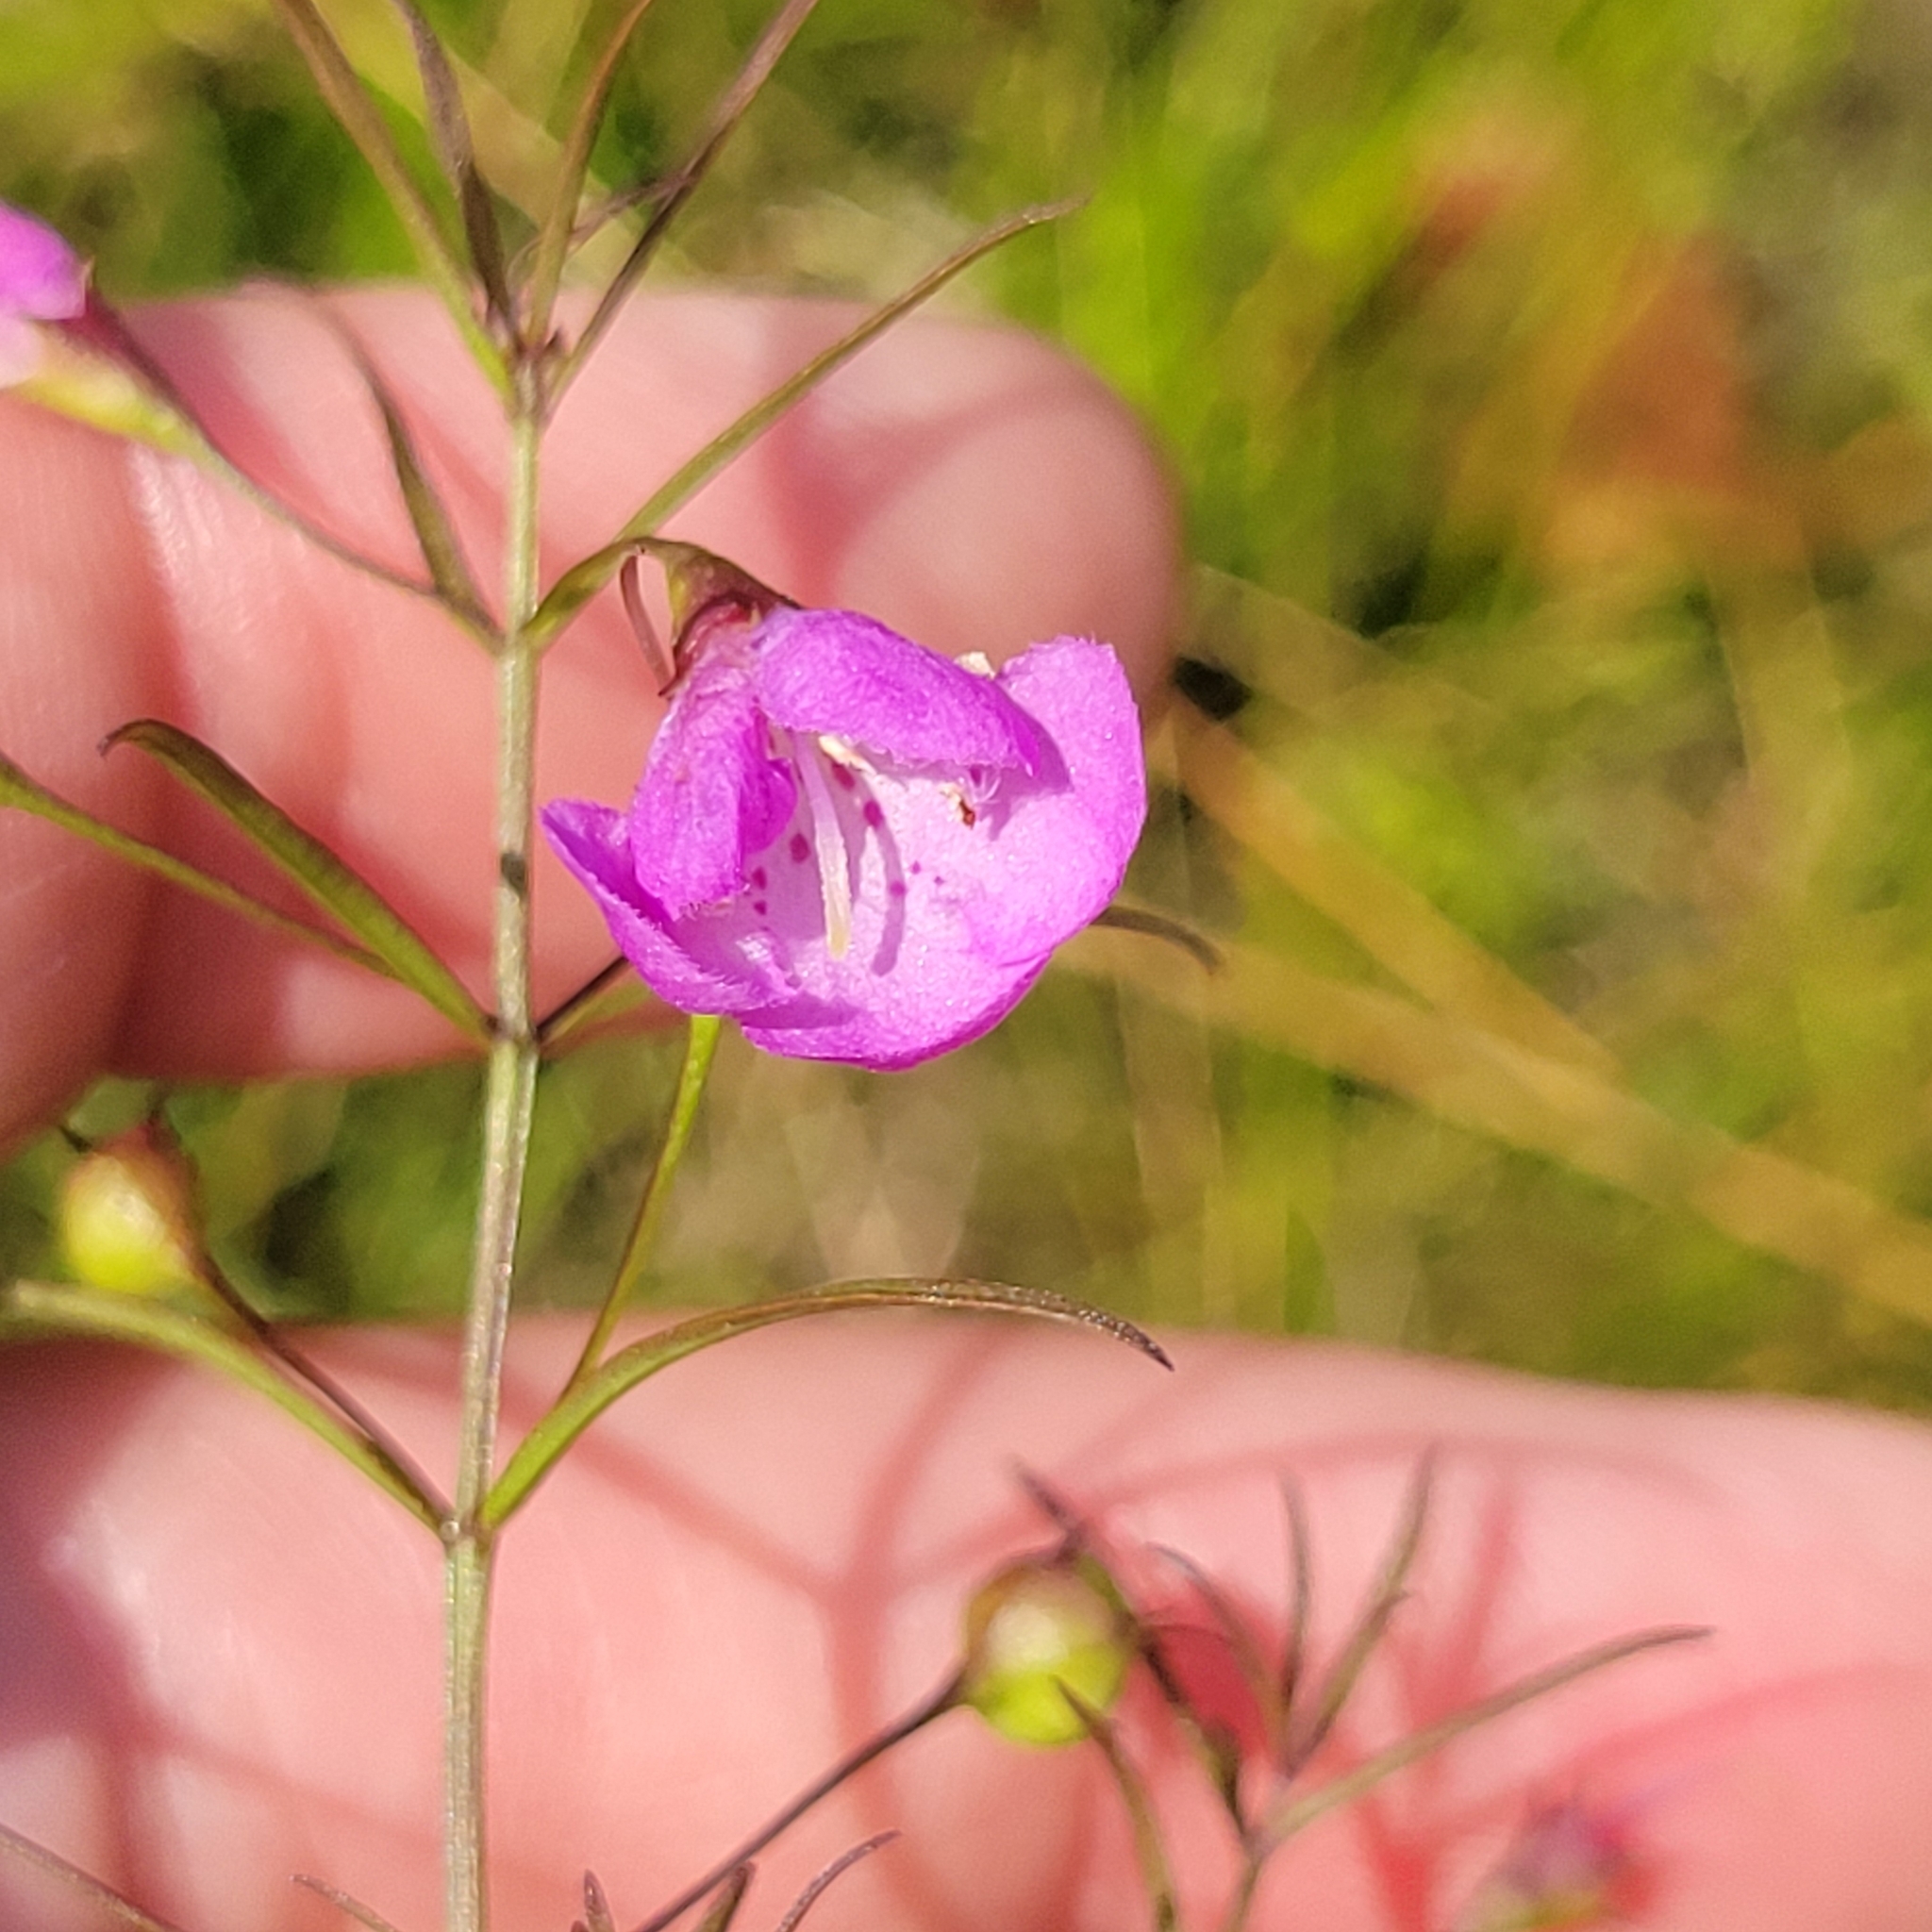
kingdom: Plantae
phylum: Tracheophyta
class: Magnoliopsida
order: Lamiales
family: Orobanchaceae
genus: Agalinis
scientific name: Agalinis tenuifolia
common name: Slender agalinis
